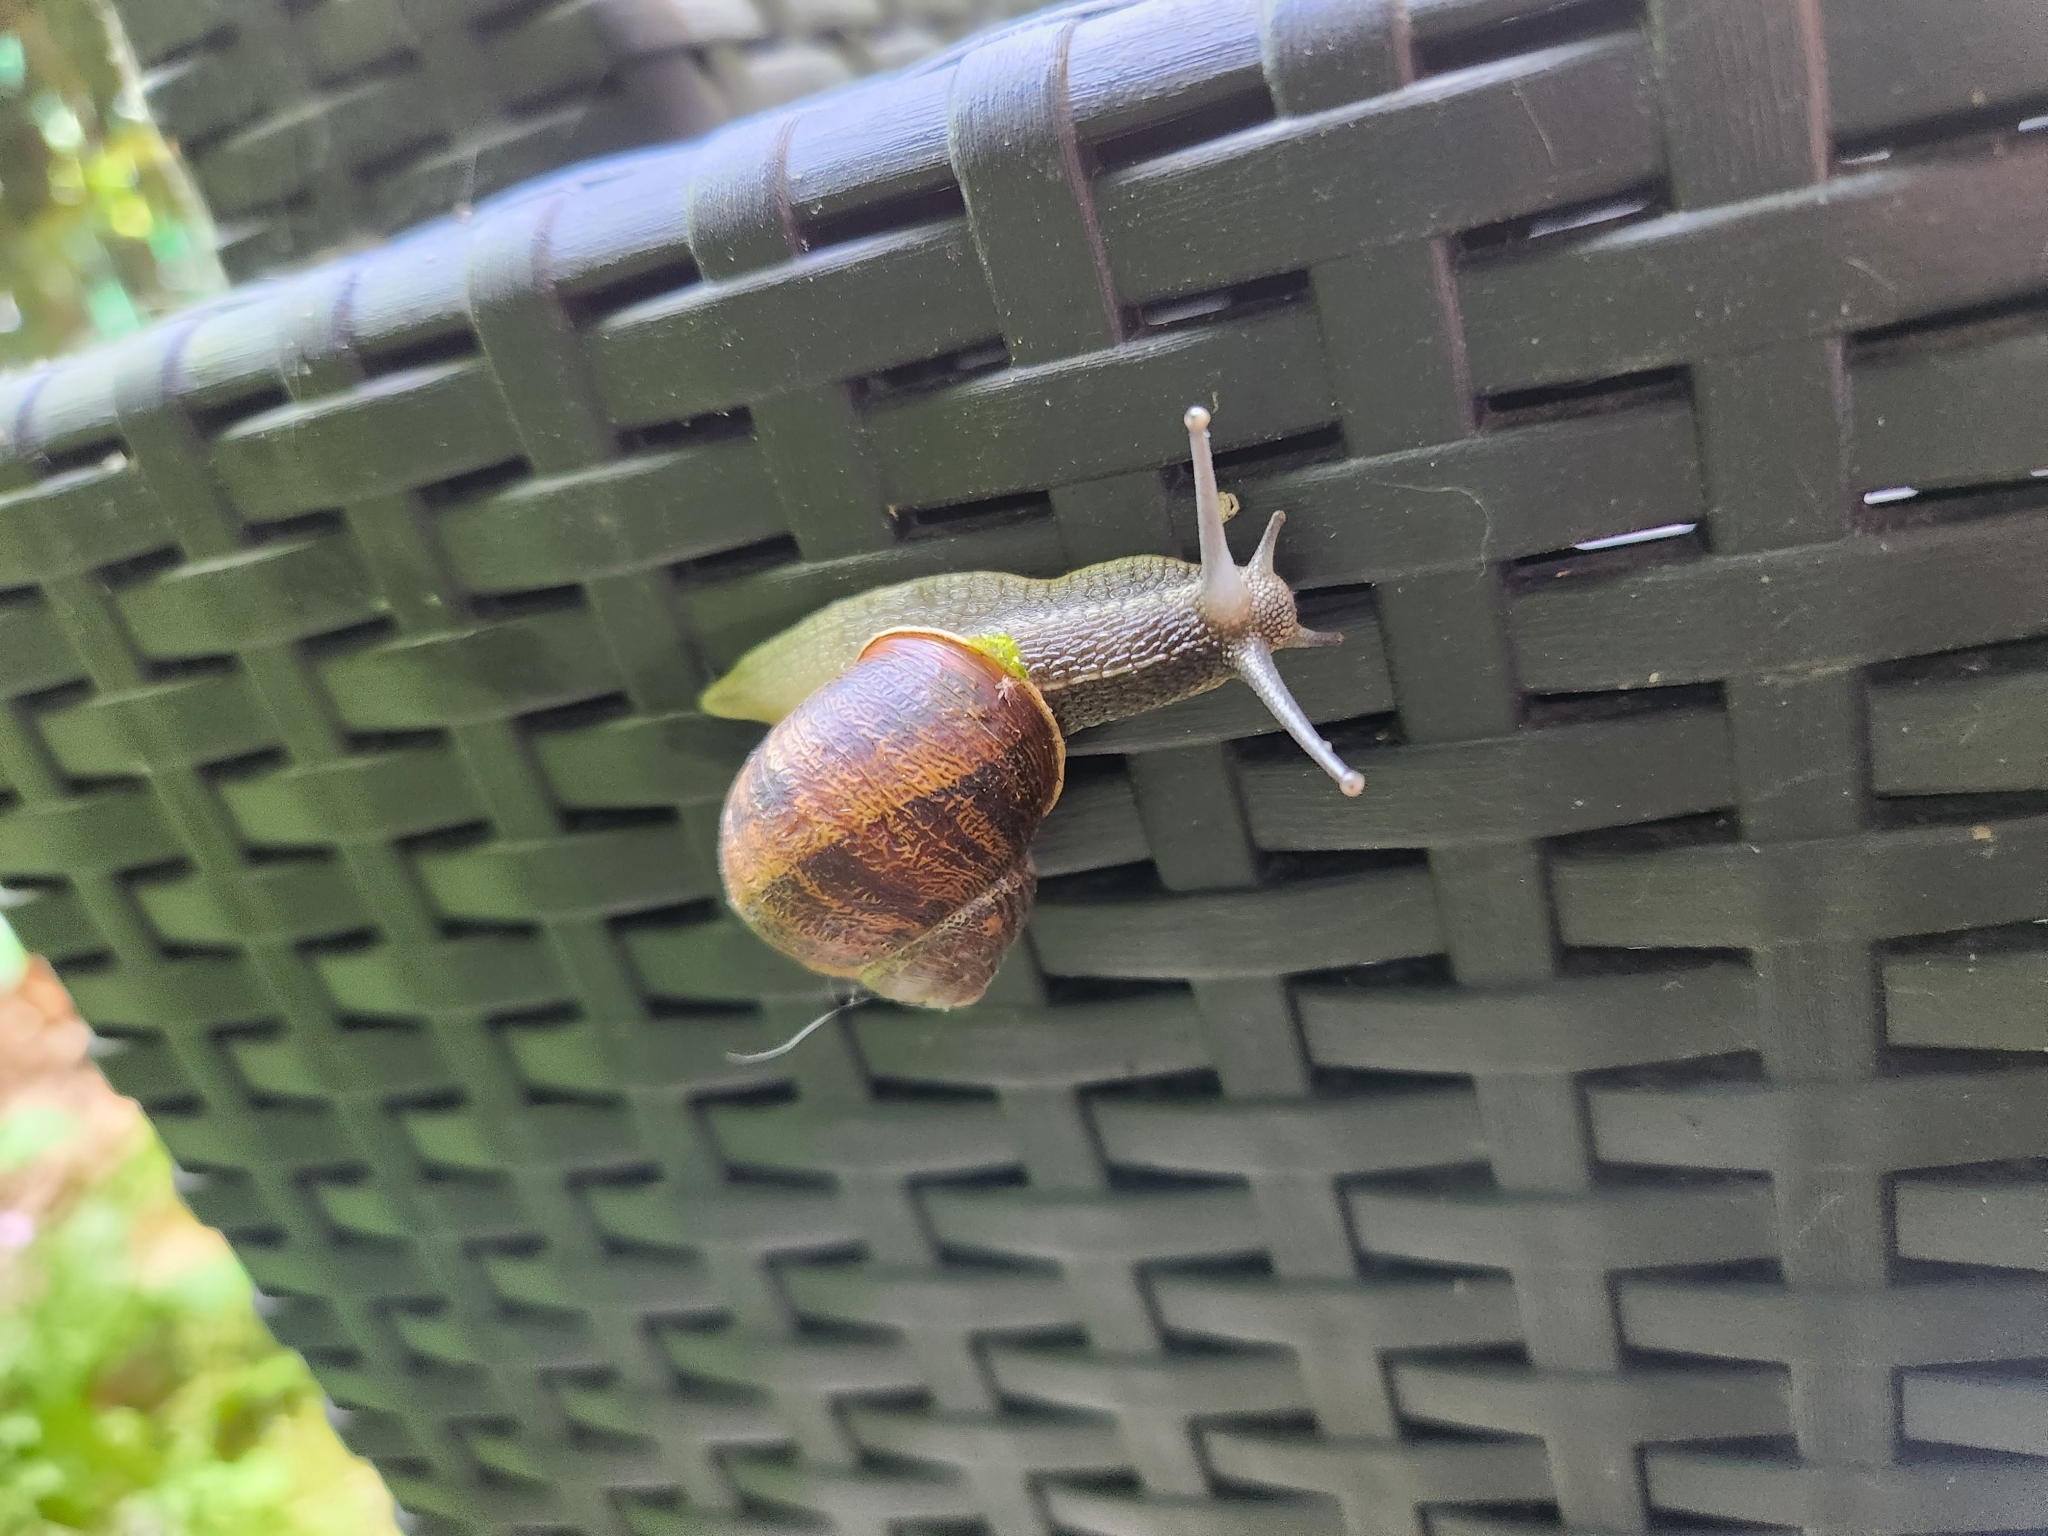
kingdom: Animalia
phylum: Mollusca
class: Gastropoda
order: Stylommatophora
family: Helicidae
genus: Cornu
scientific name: Cornu aspersum
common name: Brown garden snail
